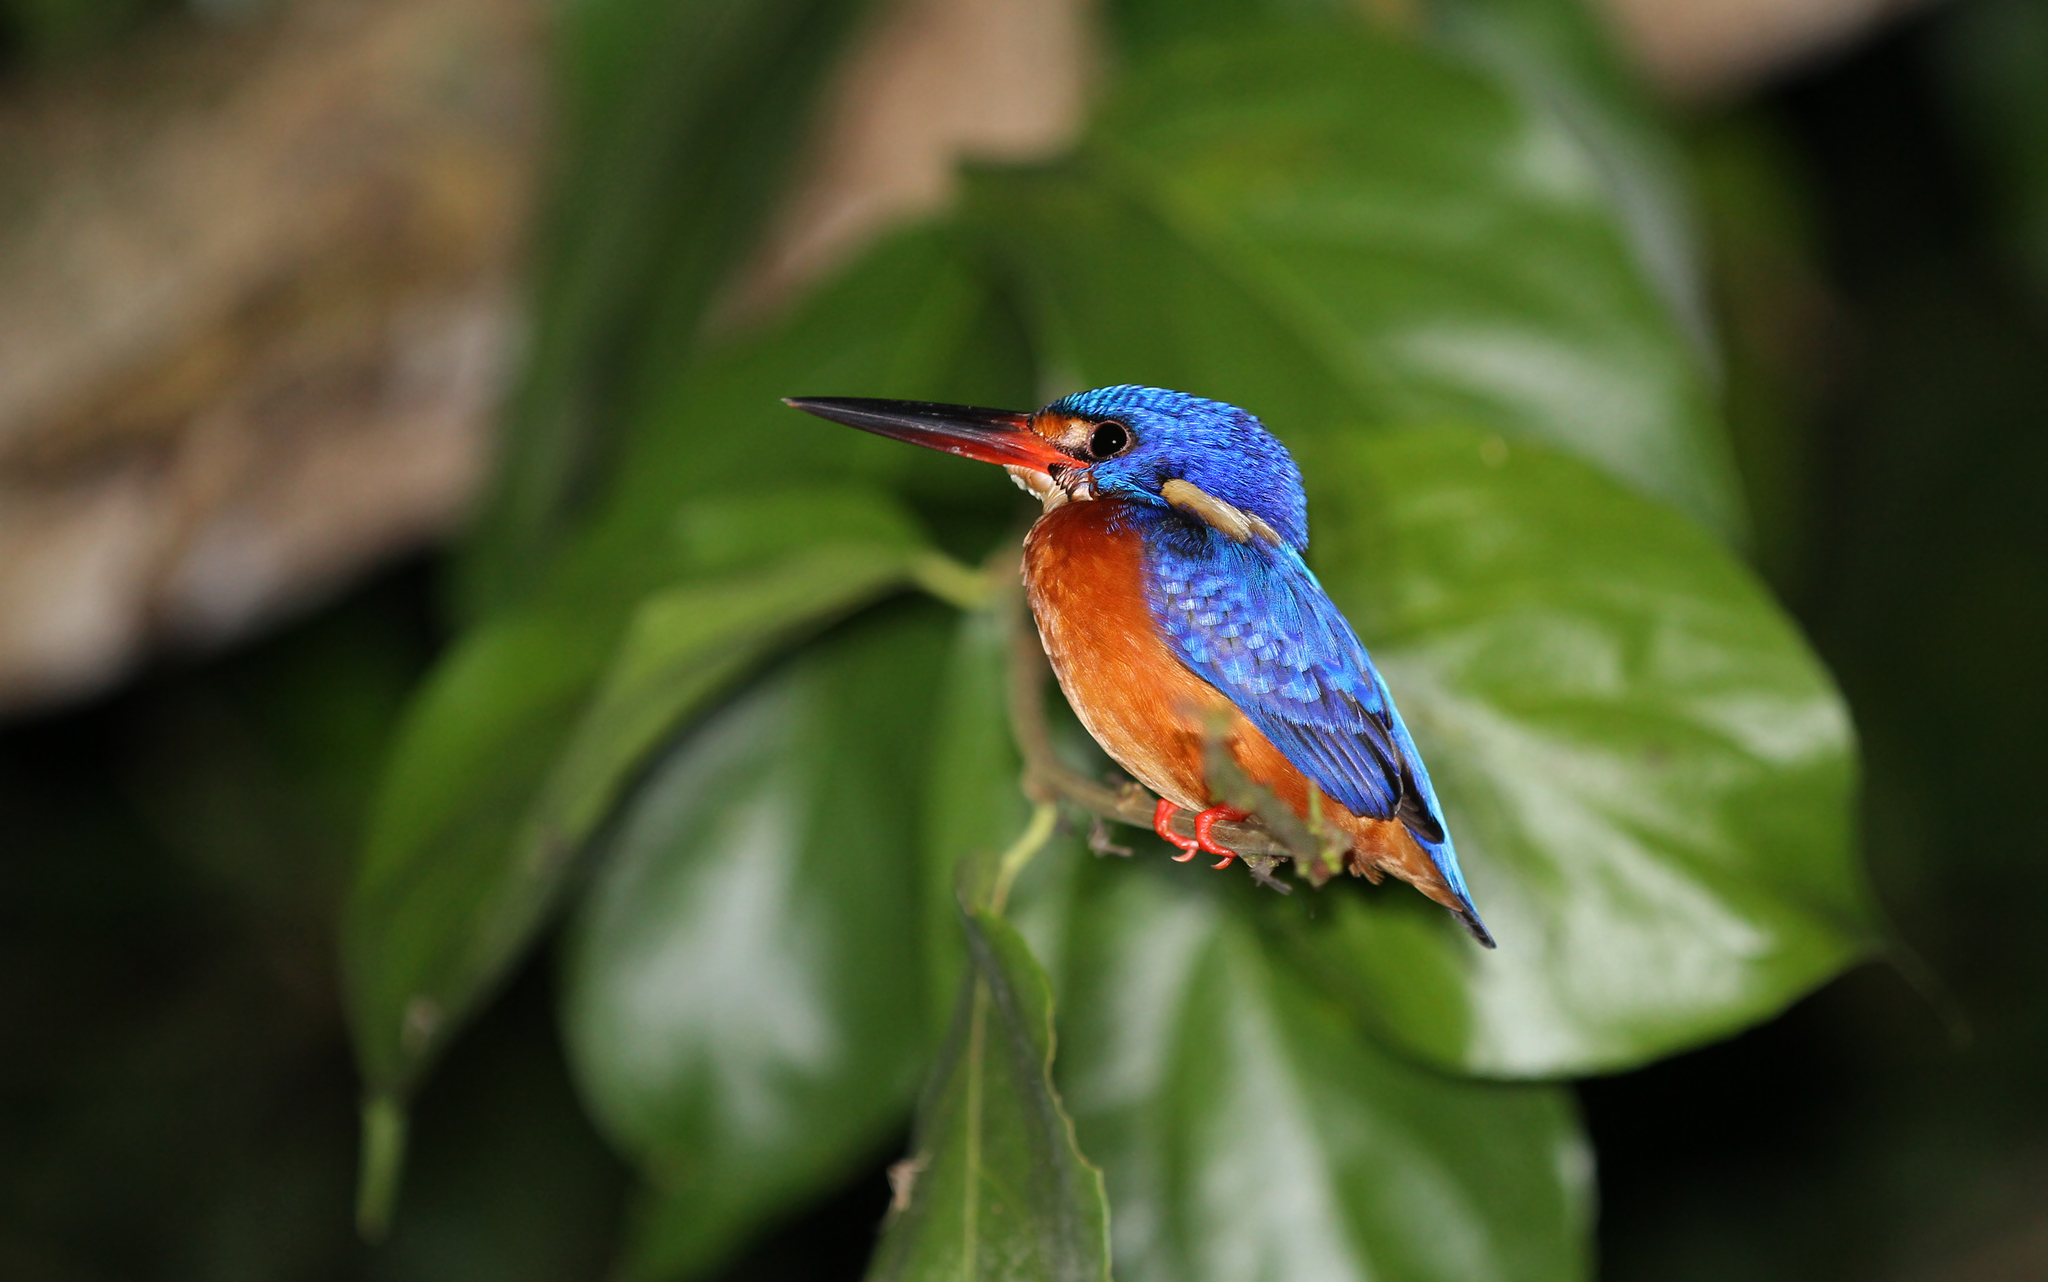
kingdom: Animalia
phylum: Chordata
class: Aves
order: Coraciiformes
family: Alcedinidae
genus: Alcedo
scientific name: Alcedo meninting
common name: Blue-eared kingfisher
